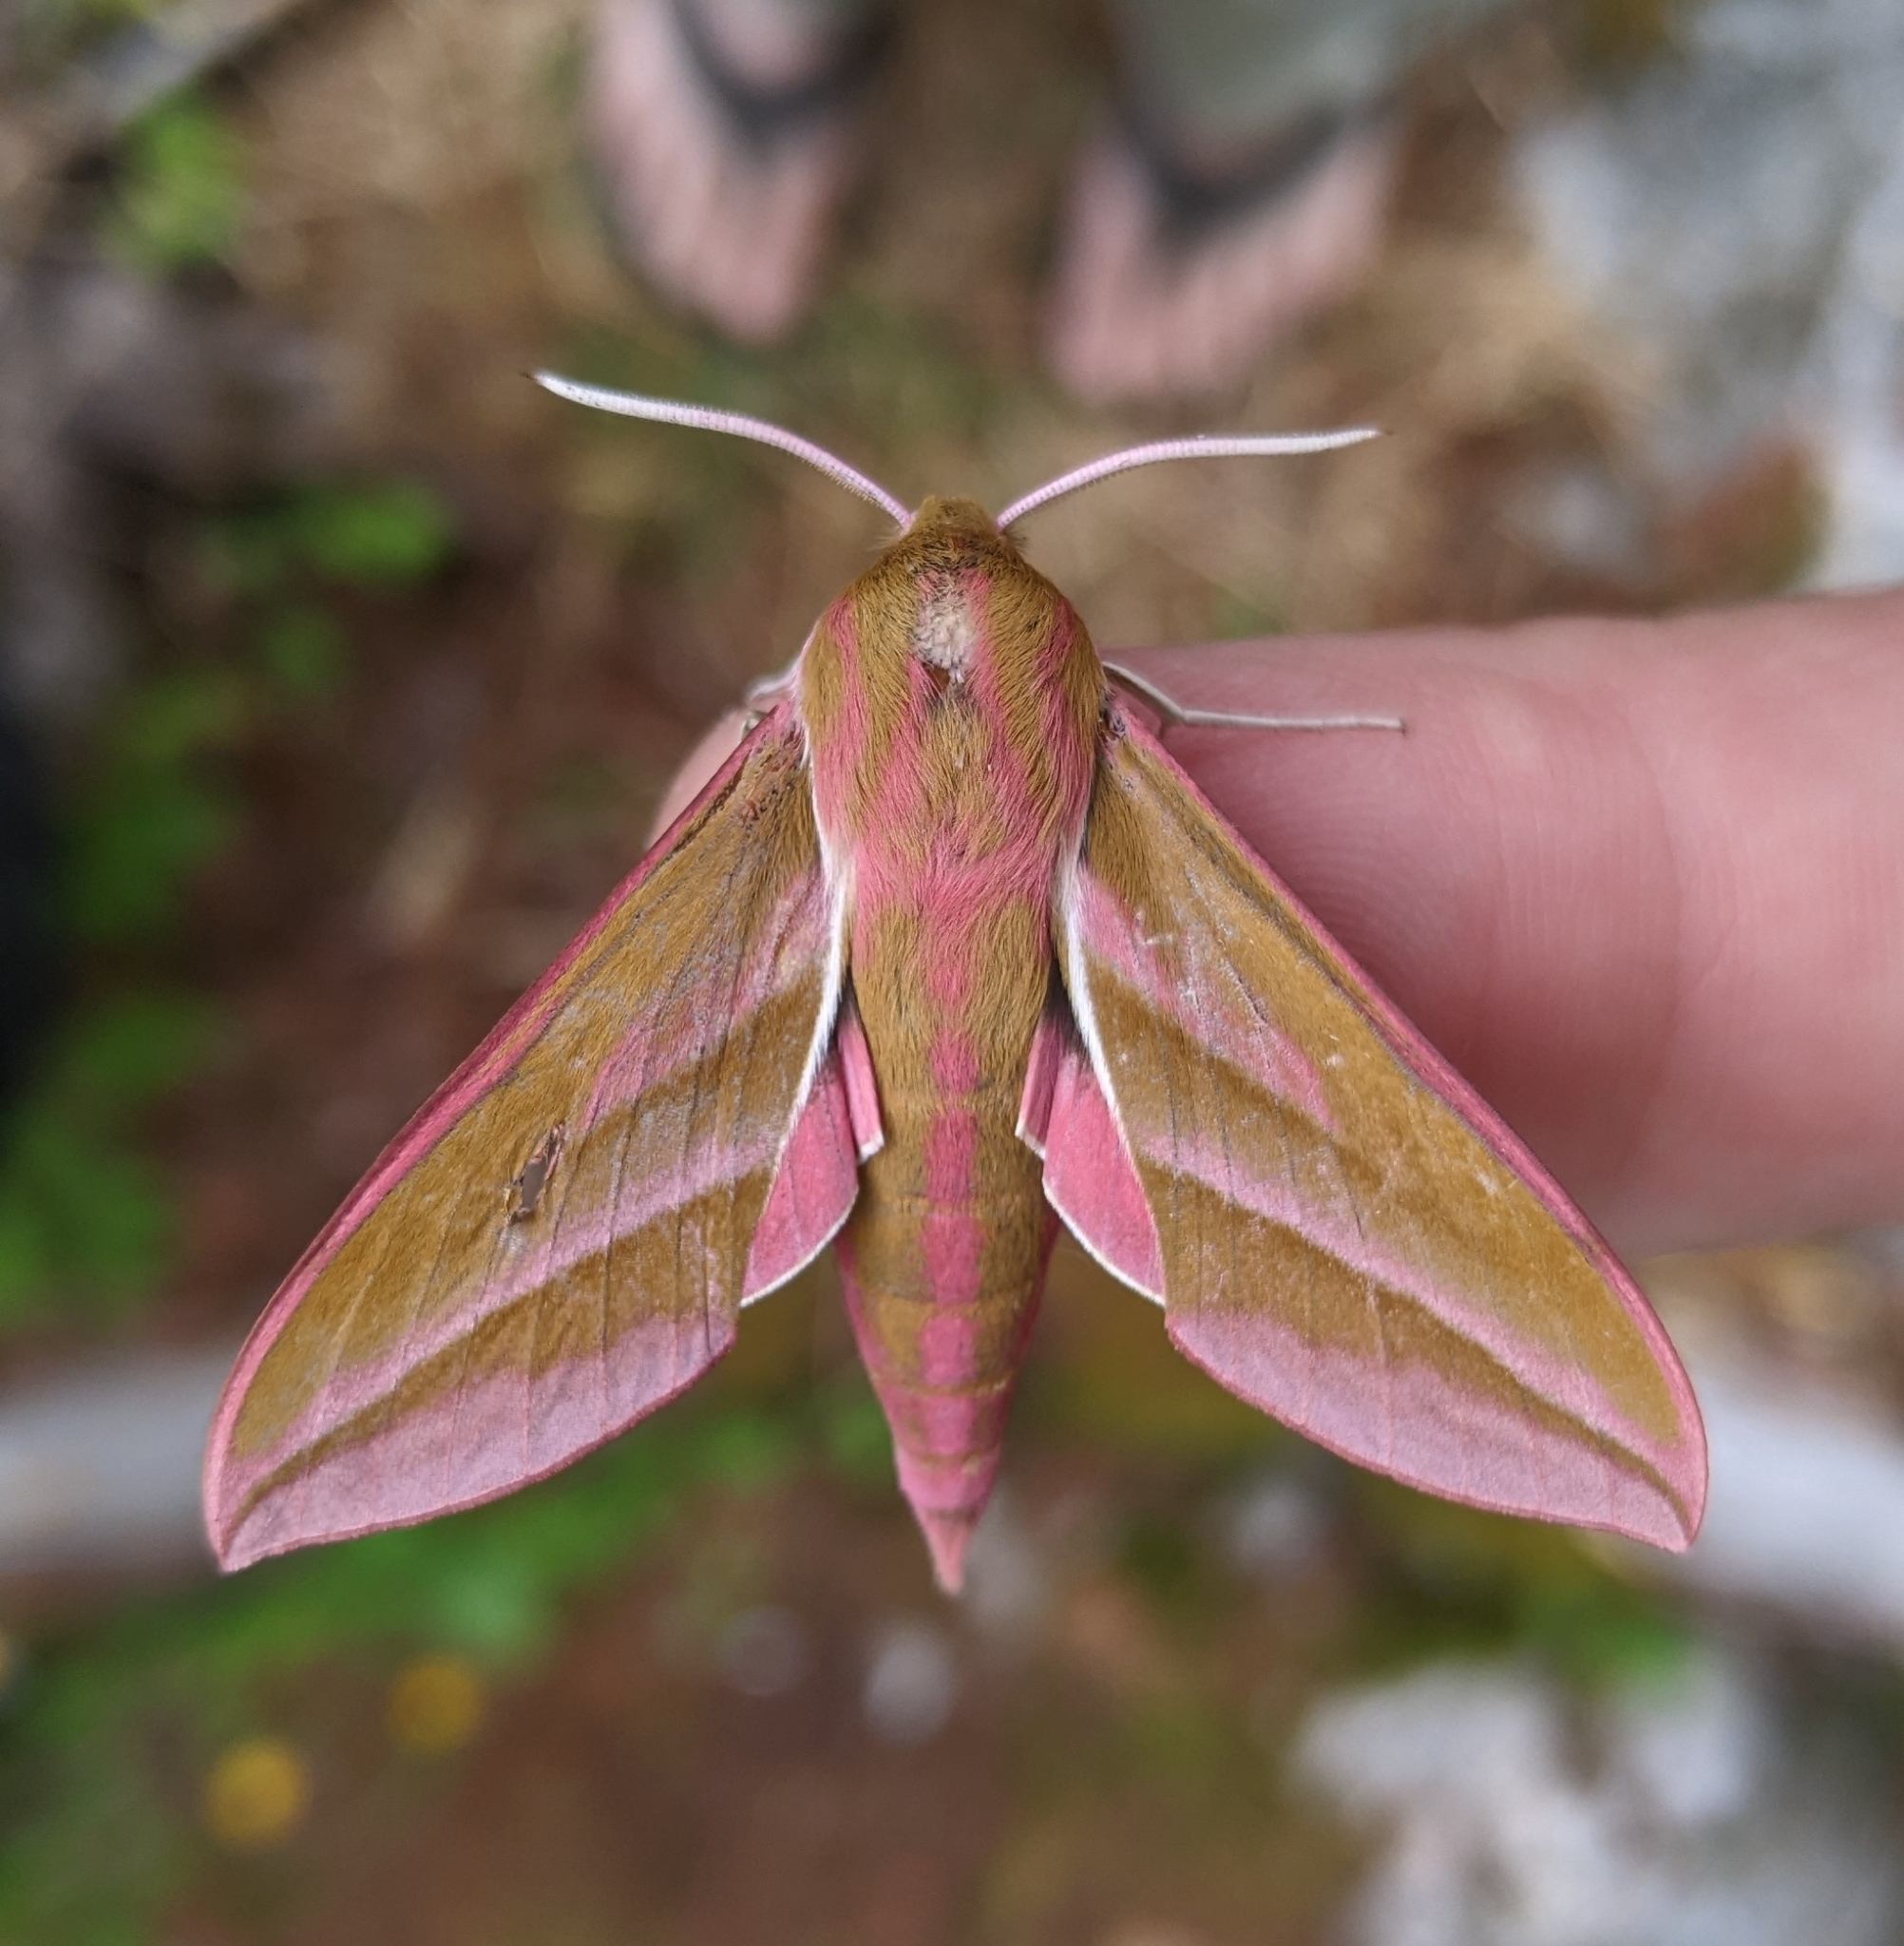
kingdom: Animalia
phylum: Arthropoda
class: Insecta
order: Lepidoptera
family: Sphingidae
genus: Deilephila
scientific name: Deilephila elpenor
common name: Elephant hawk-moth
